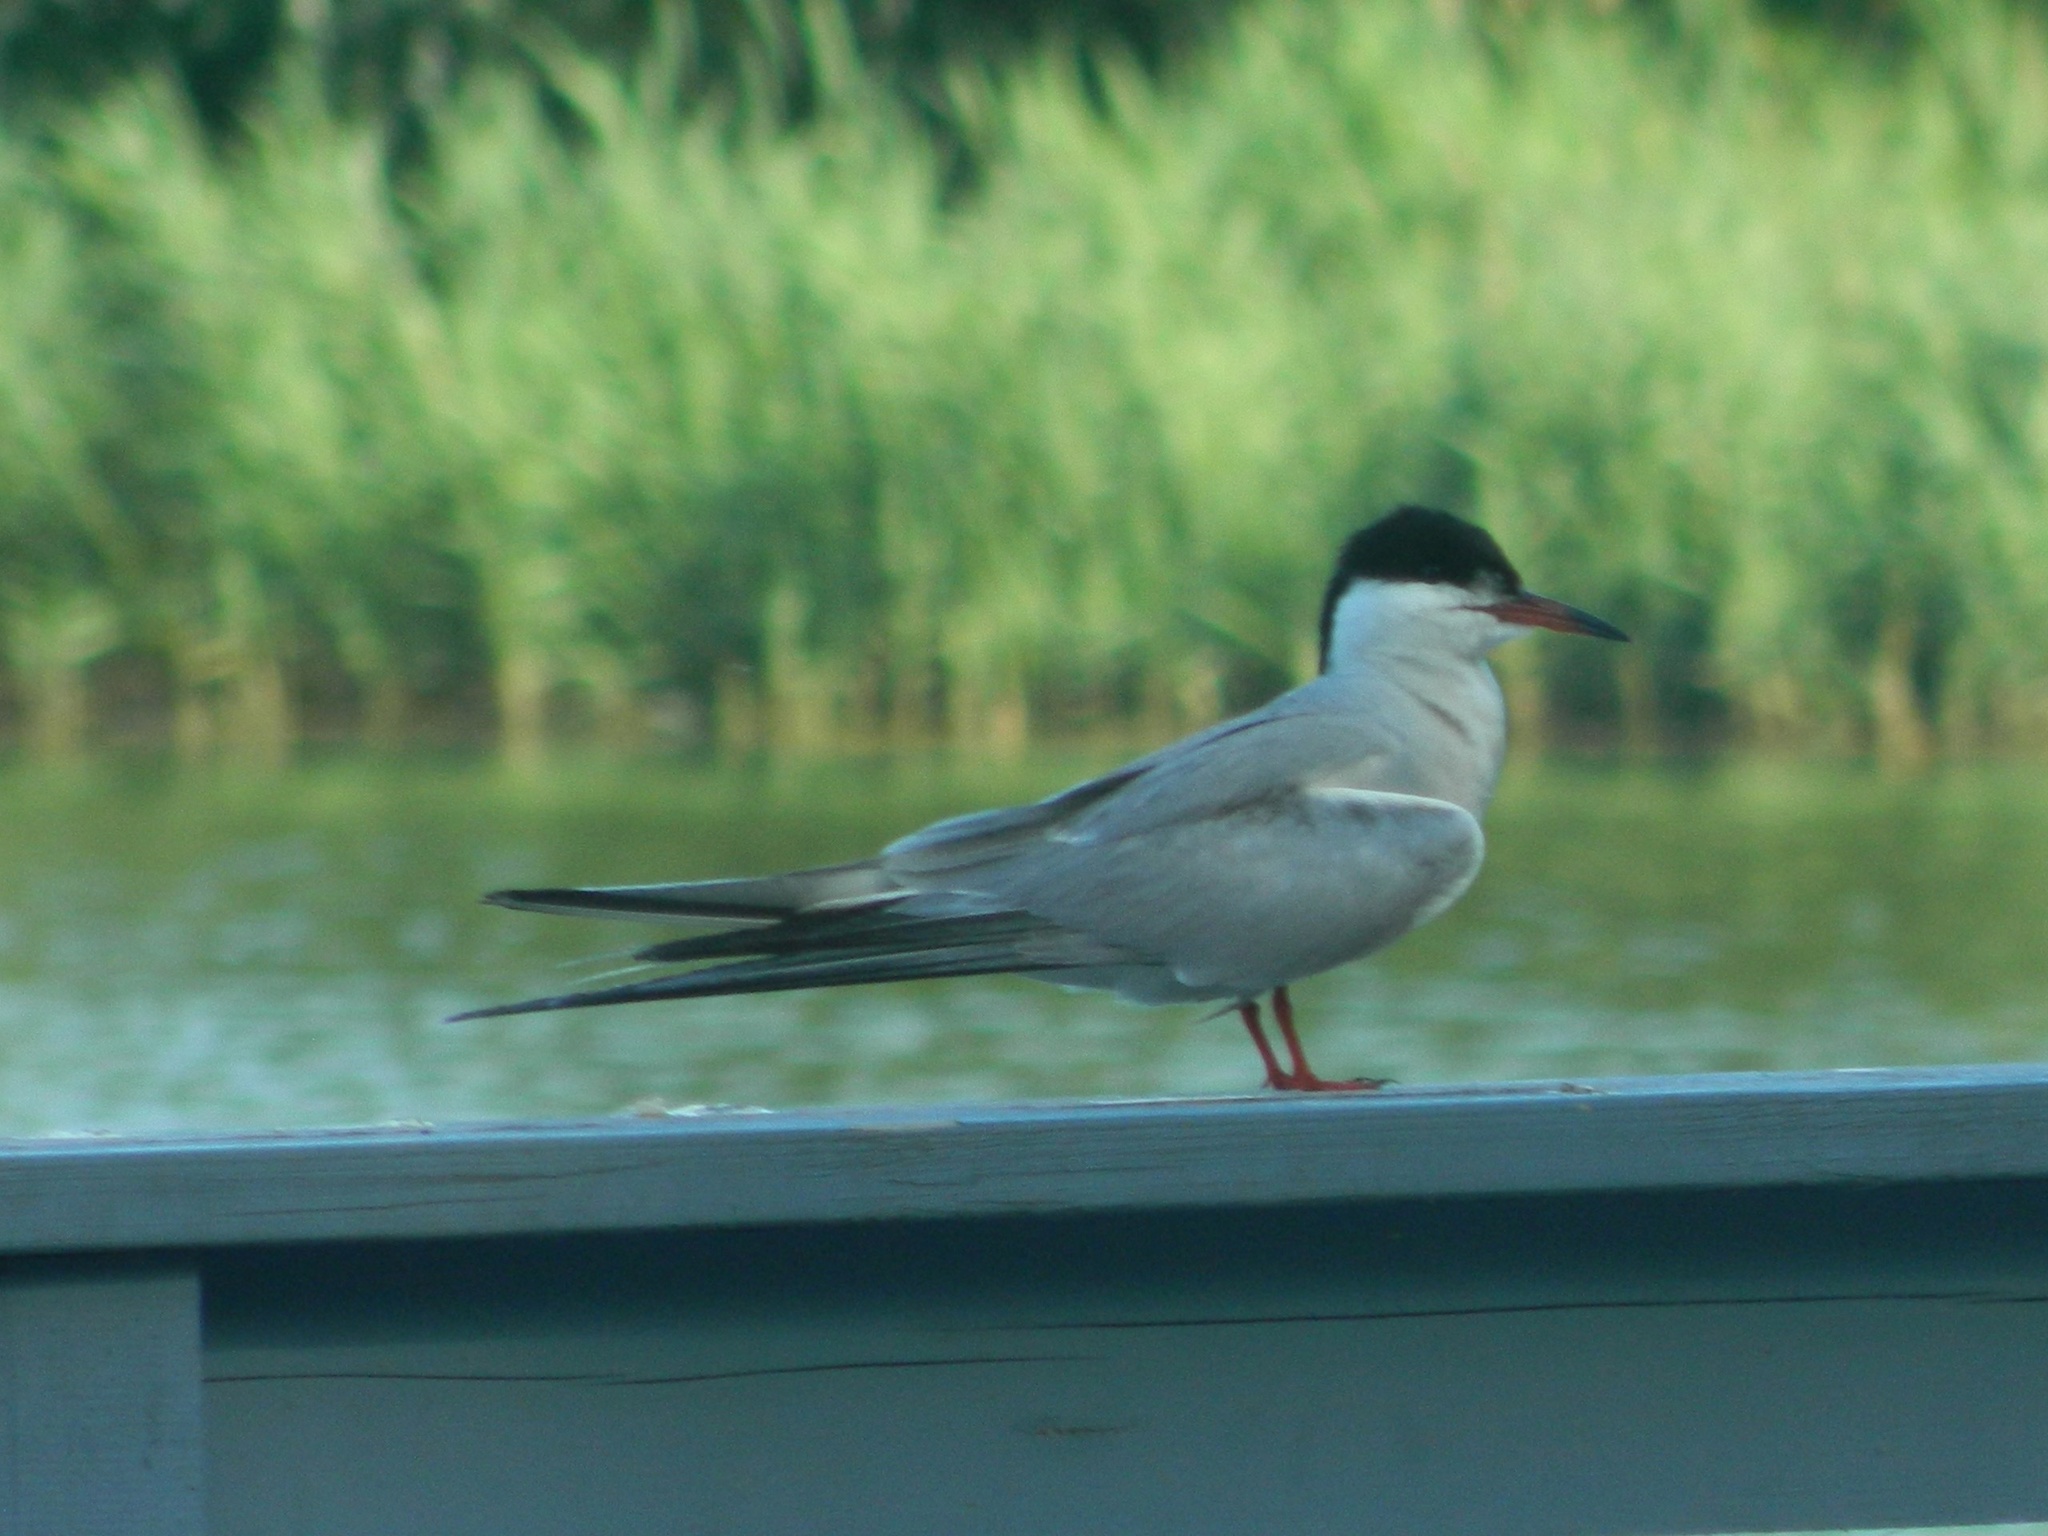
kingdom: Animalia
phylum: Chordata
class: Aves
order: Charadriiformes
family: Laridae
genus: Sterna
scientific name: Sterna hirundo
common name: Common tern
